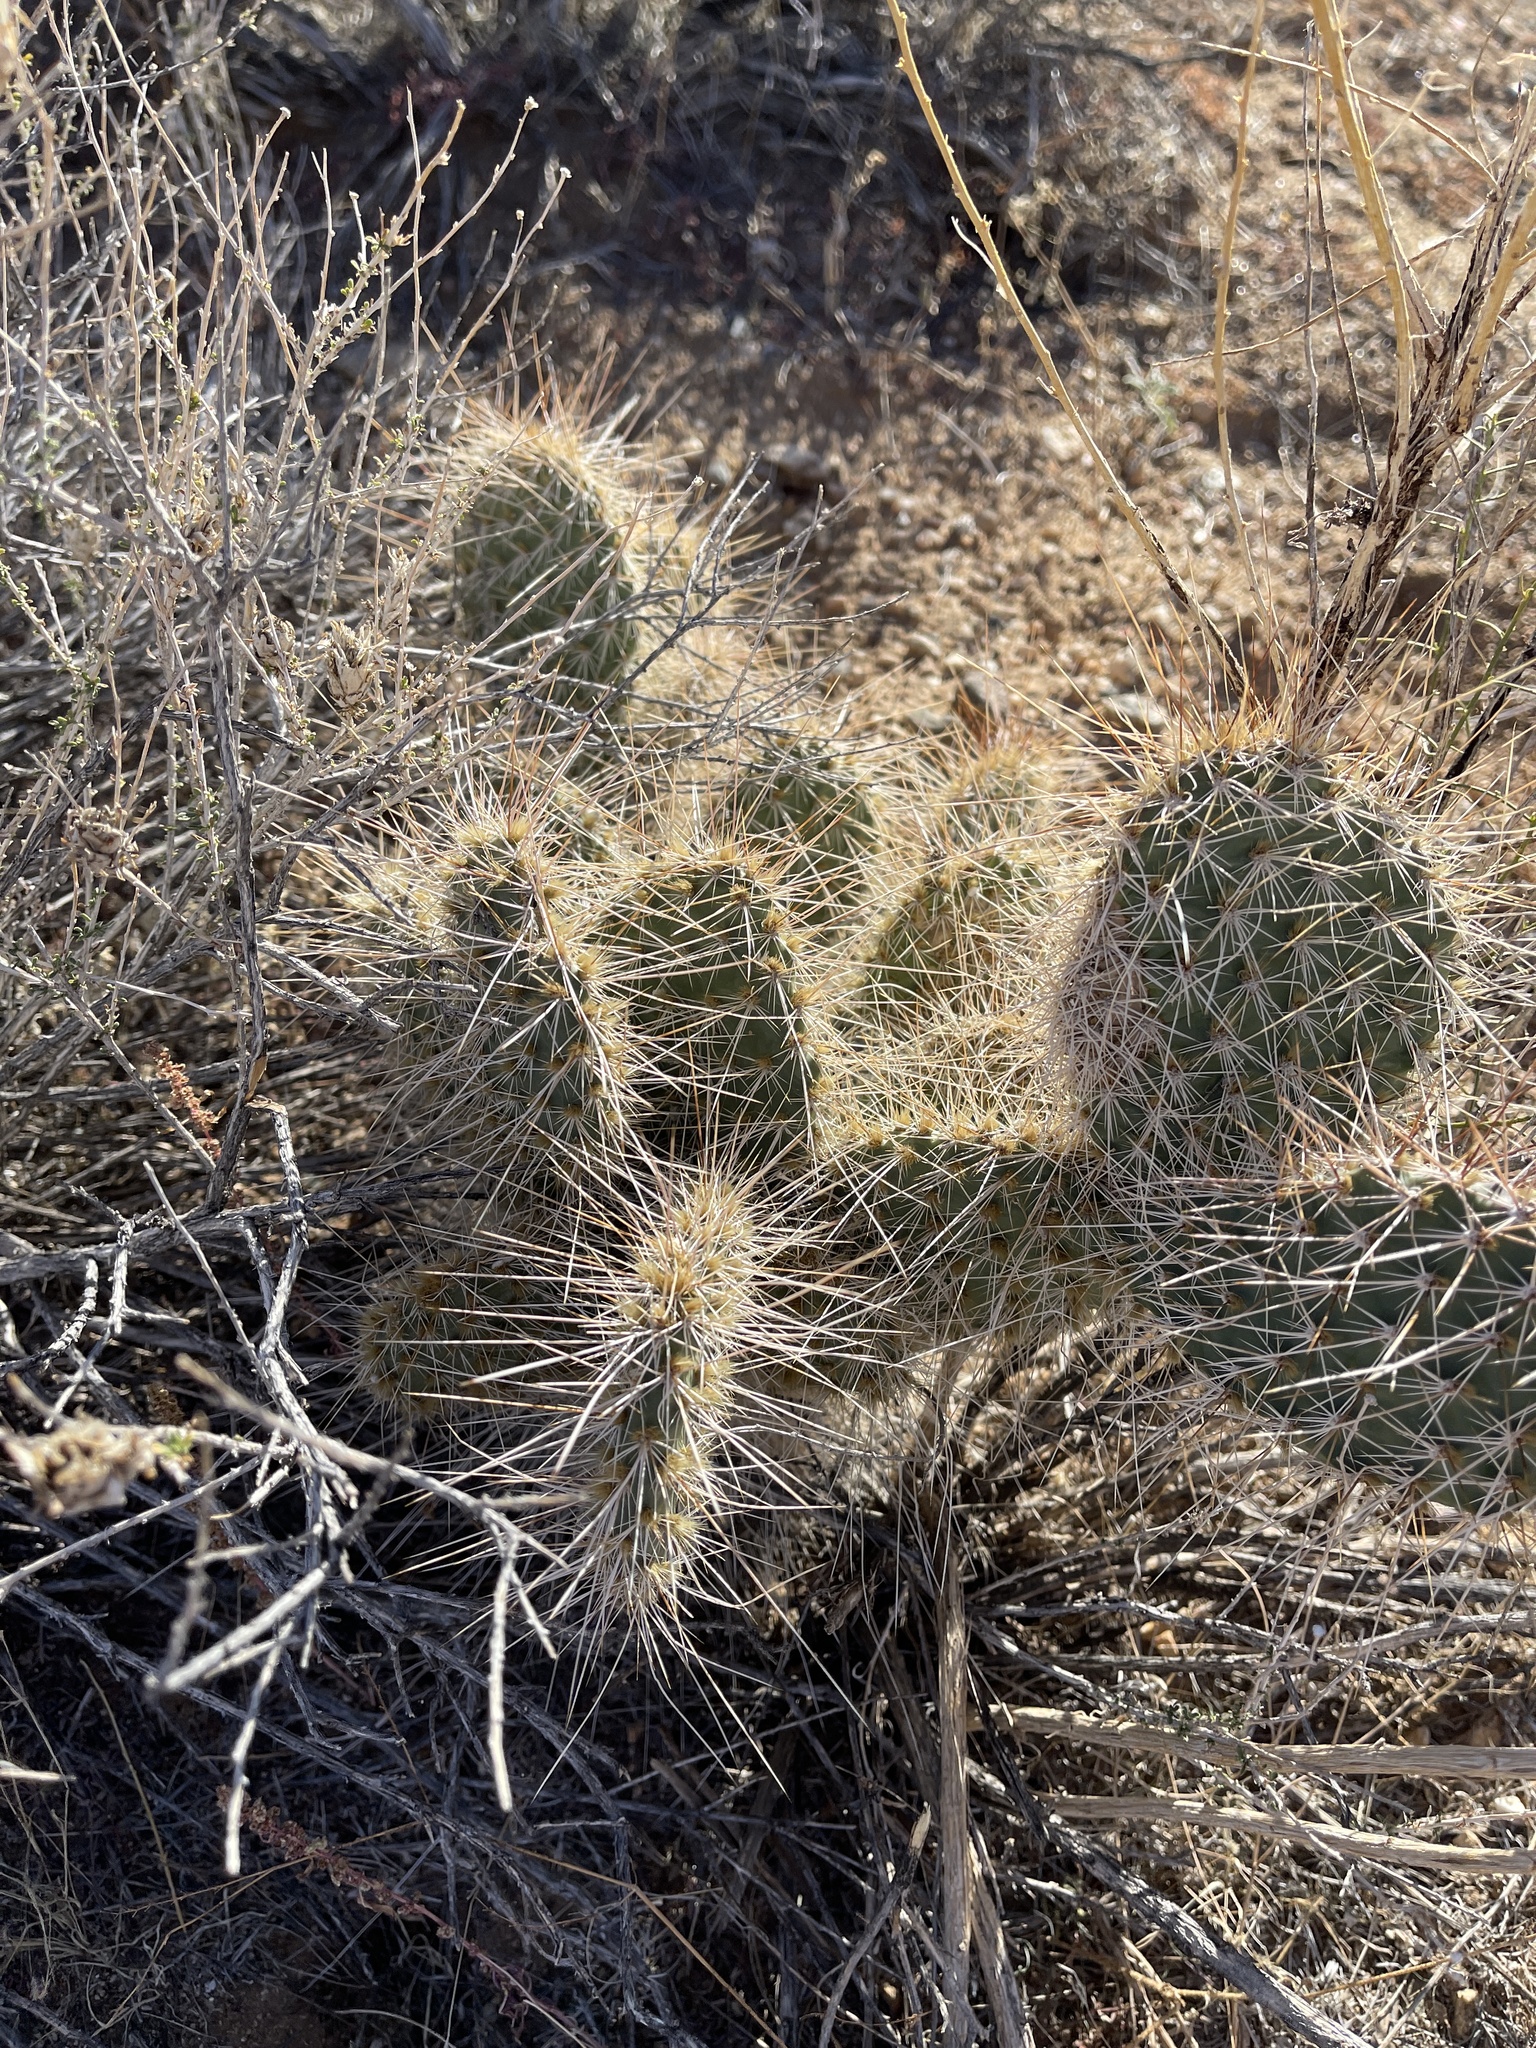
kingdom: Plantae
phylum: Tracheophyta
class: Magnoliopsida
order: Caryophyllales
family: Cactaceae
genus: Opuntia
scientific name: Opuntia polyacantha
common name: Plains prickly-pear
